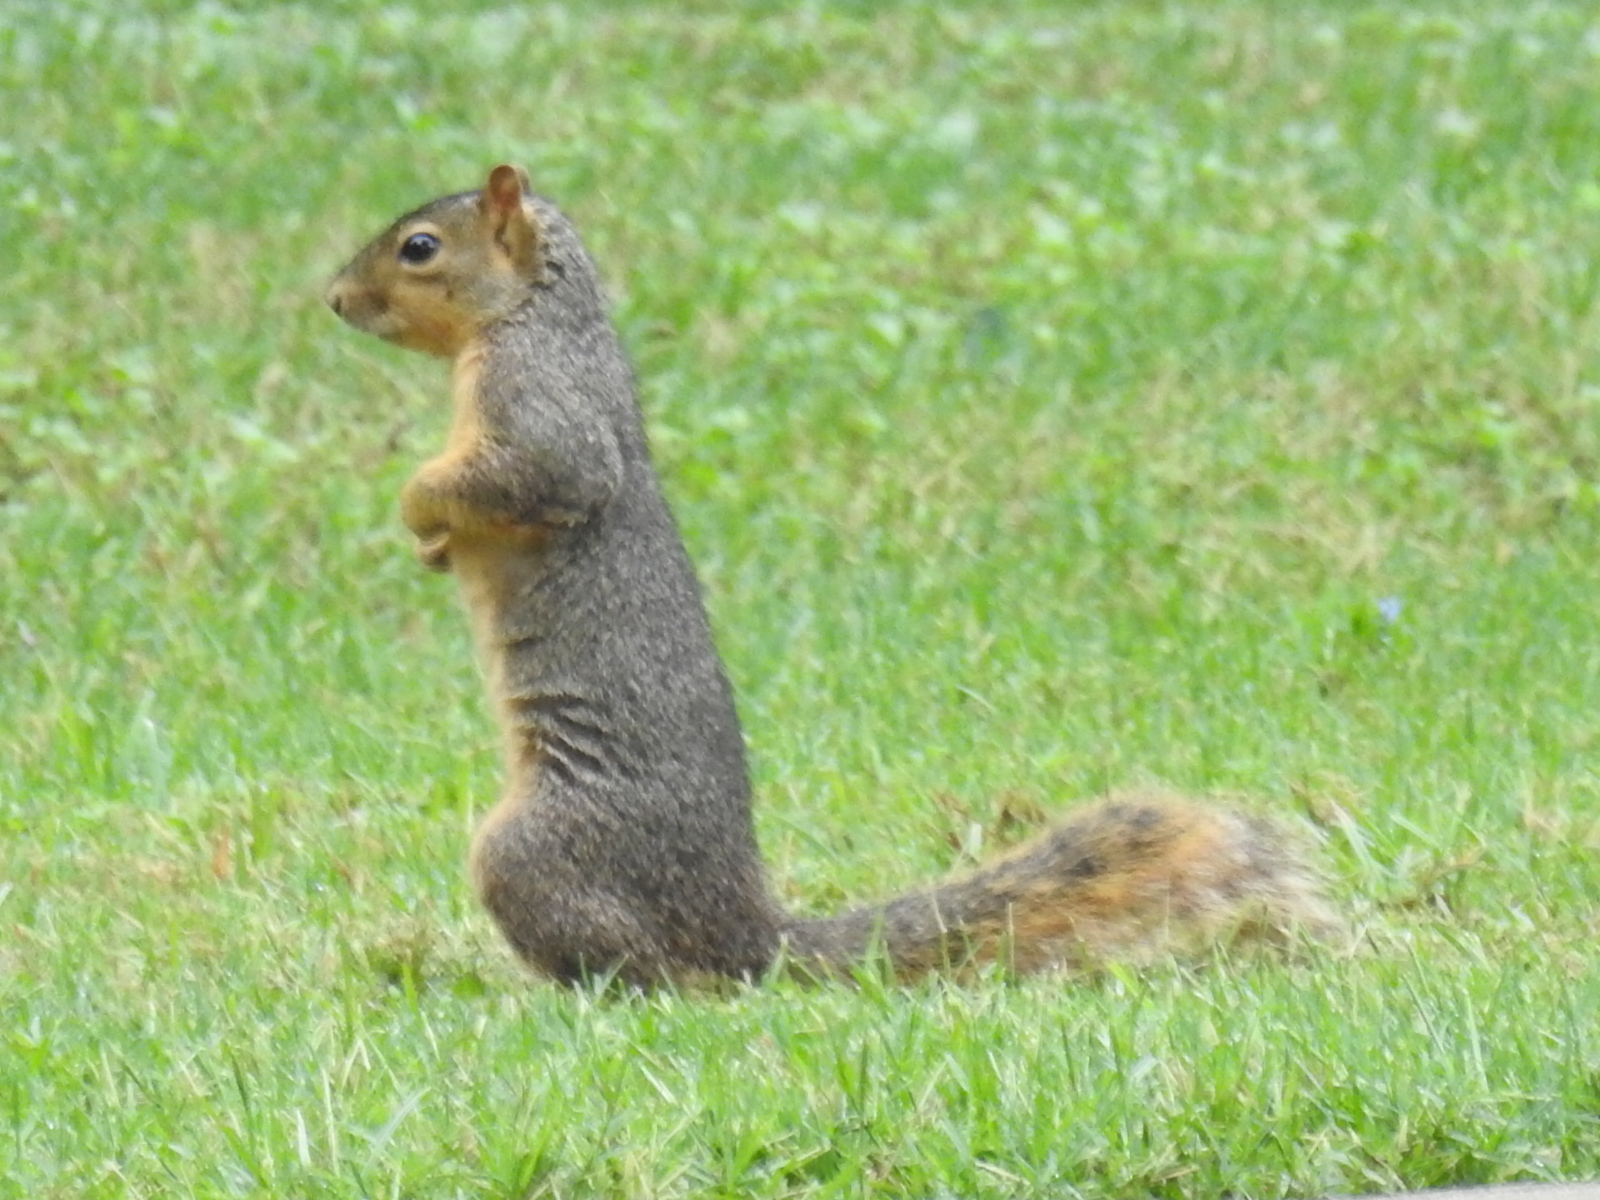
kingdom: Animalia
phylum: Chordata
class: Mammalia
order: Rodentia
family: Sciuridae
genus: Sciurus
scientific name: Sciurus niger
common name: Fox squirrel
